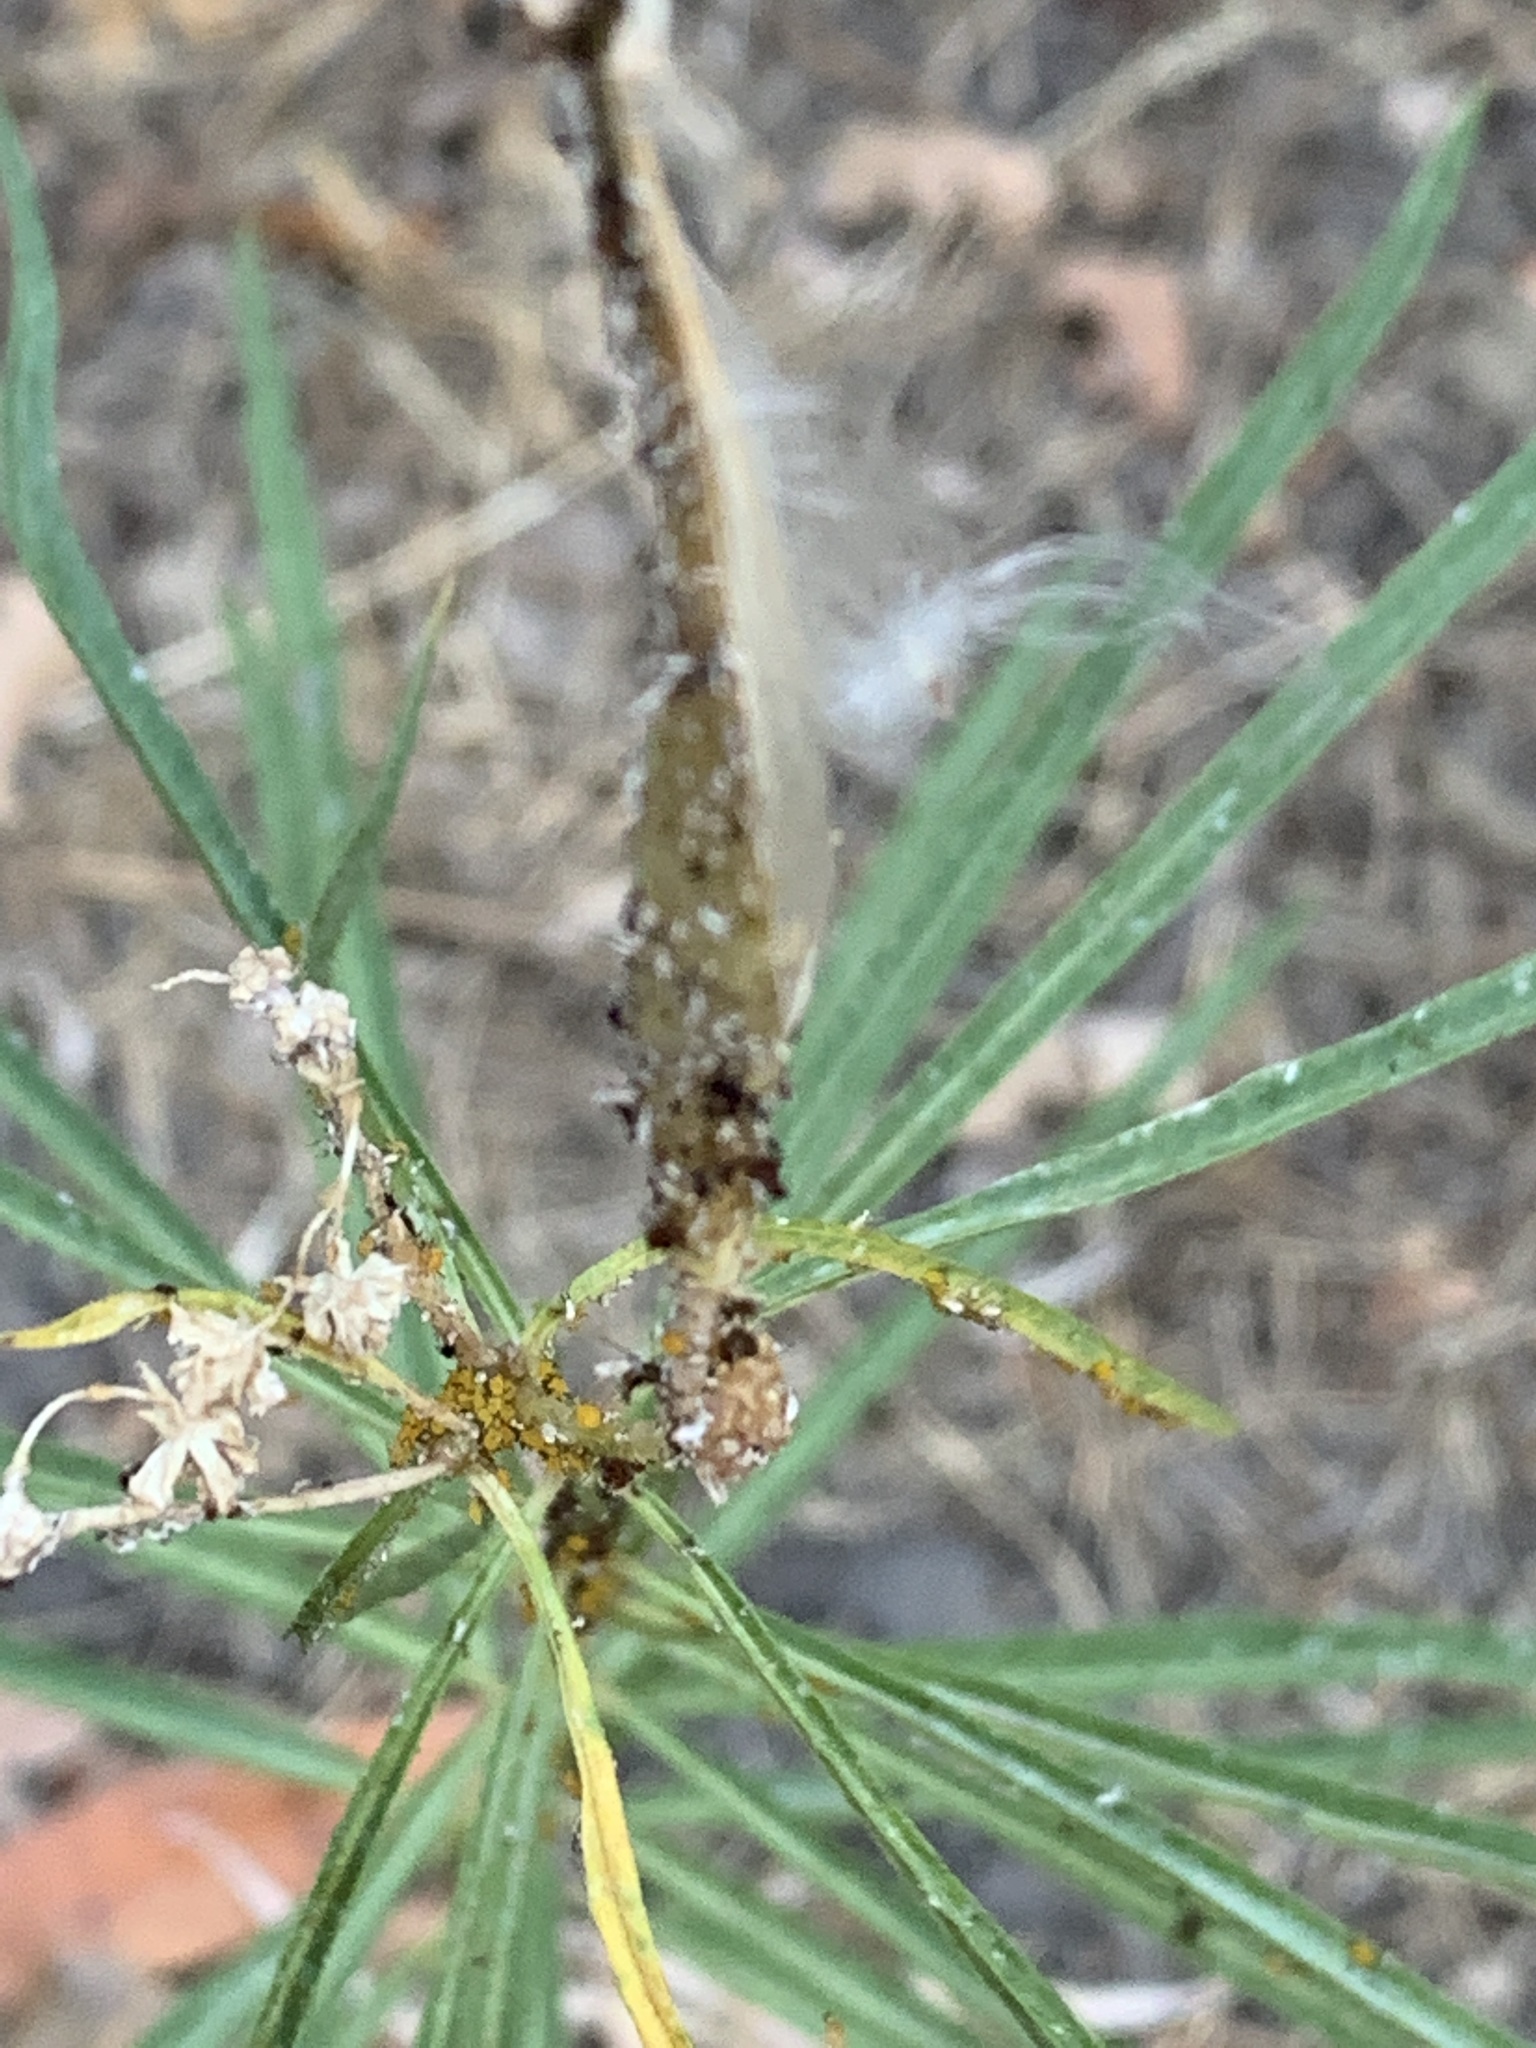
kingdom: Plantae
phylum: Tracheophyta
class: Magnoliopsida
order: Gentianales
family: Apocynaceae
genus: Asclepias
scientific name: Asclepias fascicularis
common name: Mexican milkweed
